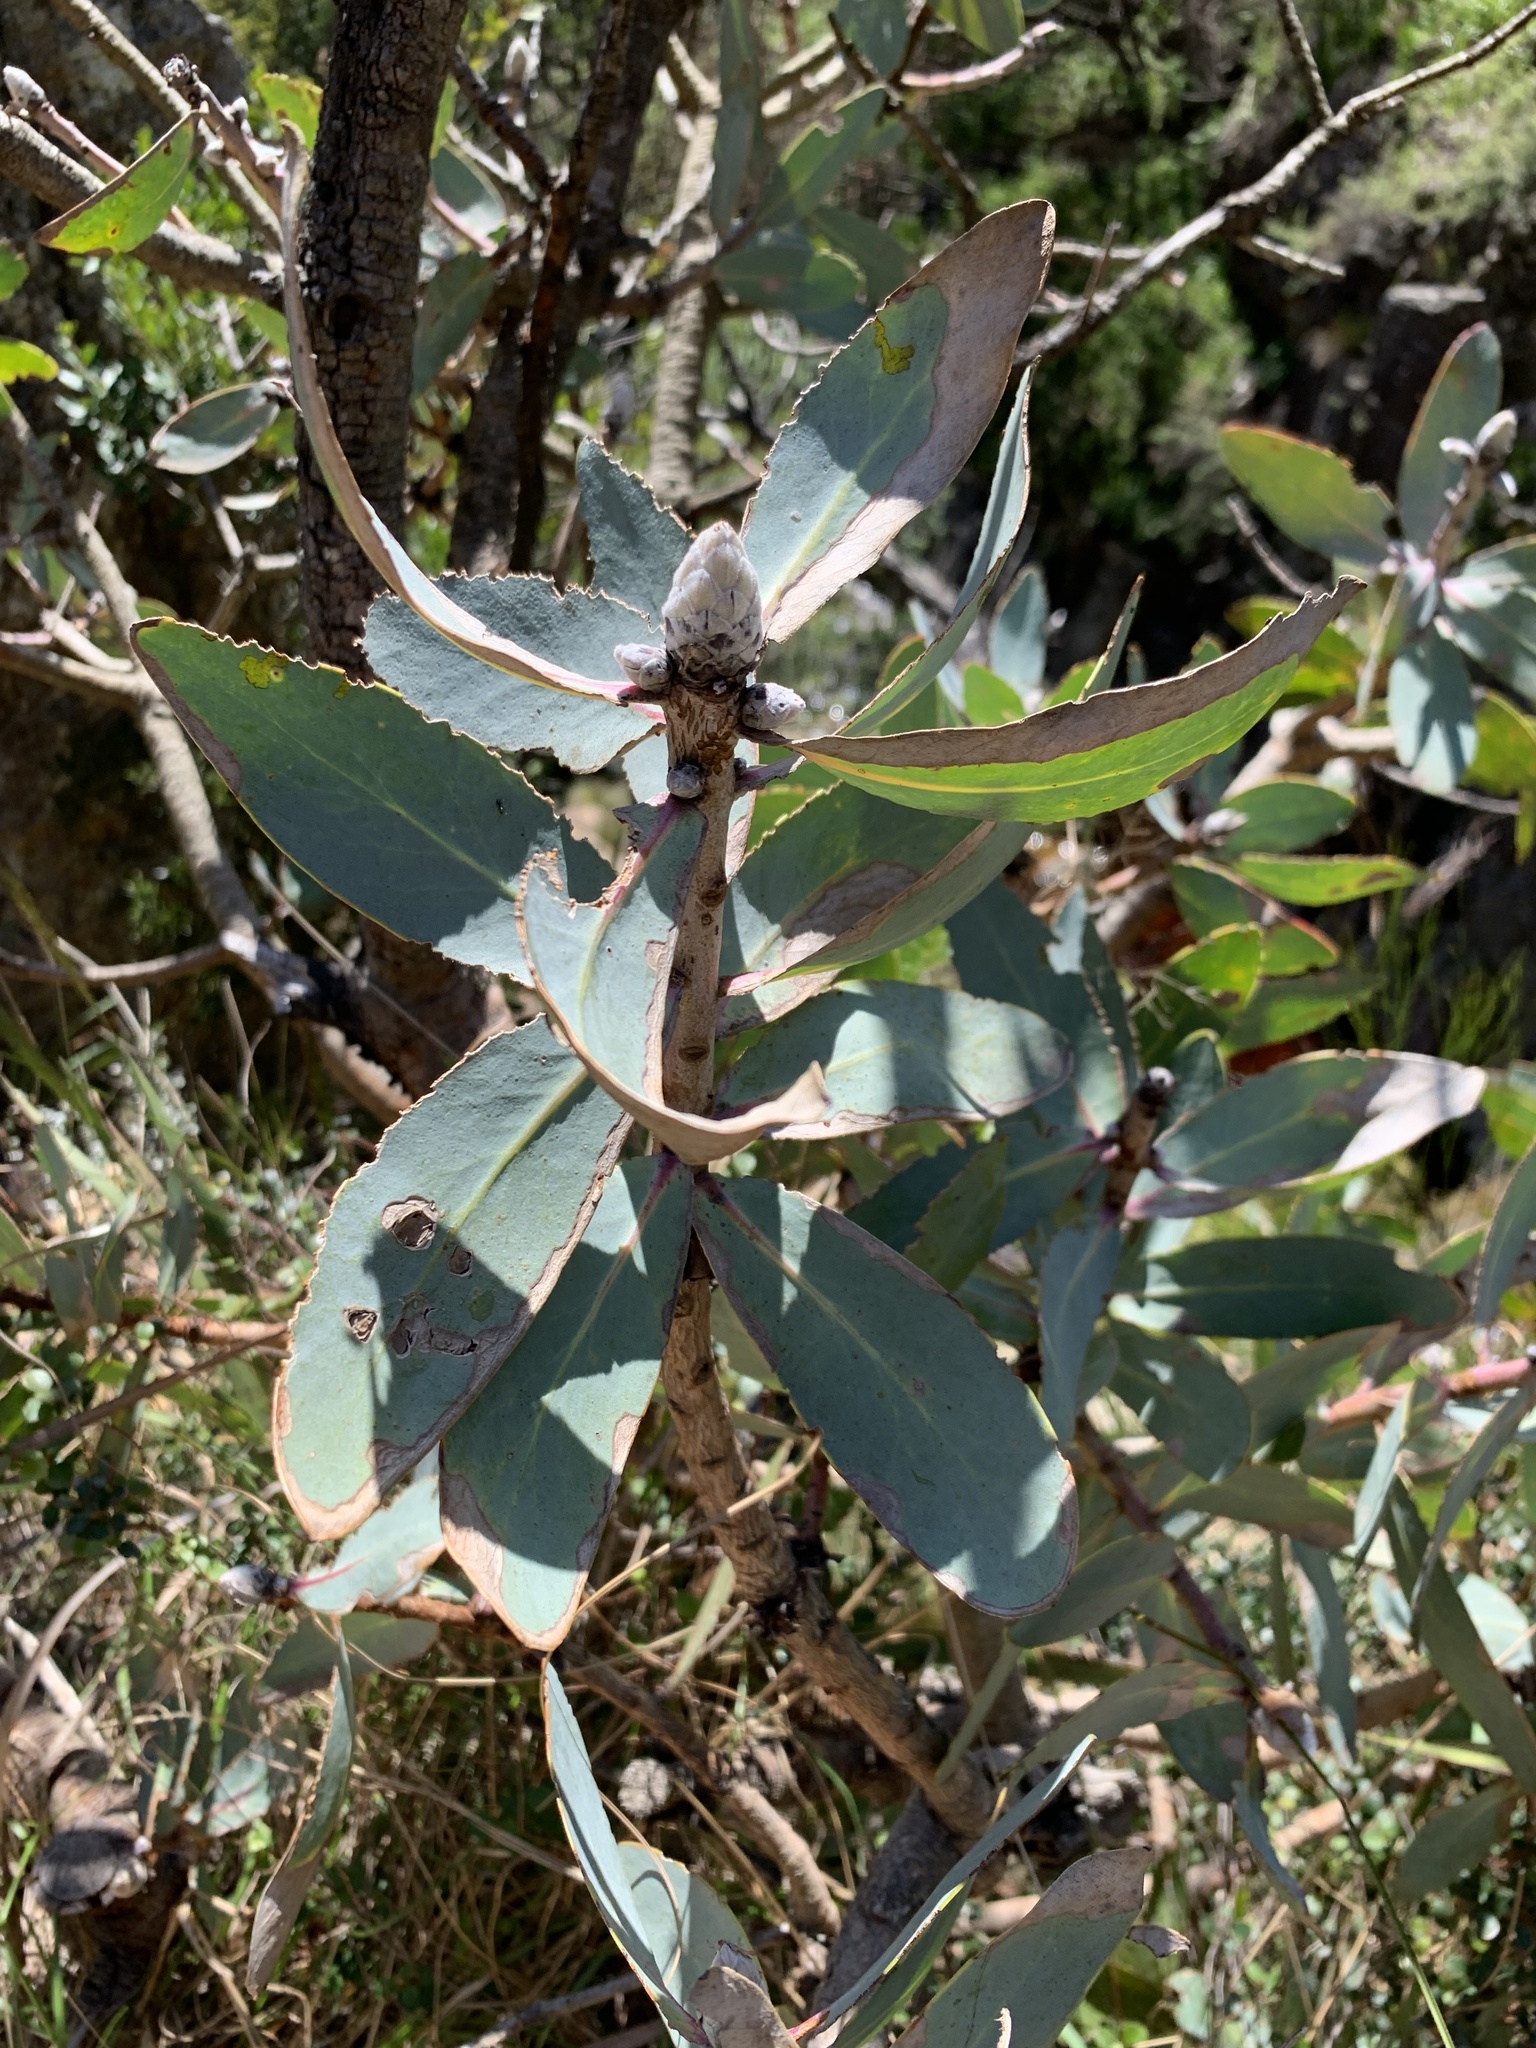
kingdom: Plantae
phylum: Tracheophyta
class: Magnoliopsida
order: Proteales
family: Proteaceae
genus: Protea
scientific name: Protea nitida
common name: Tree protea
